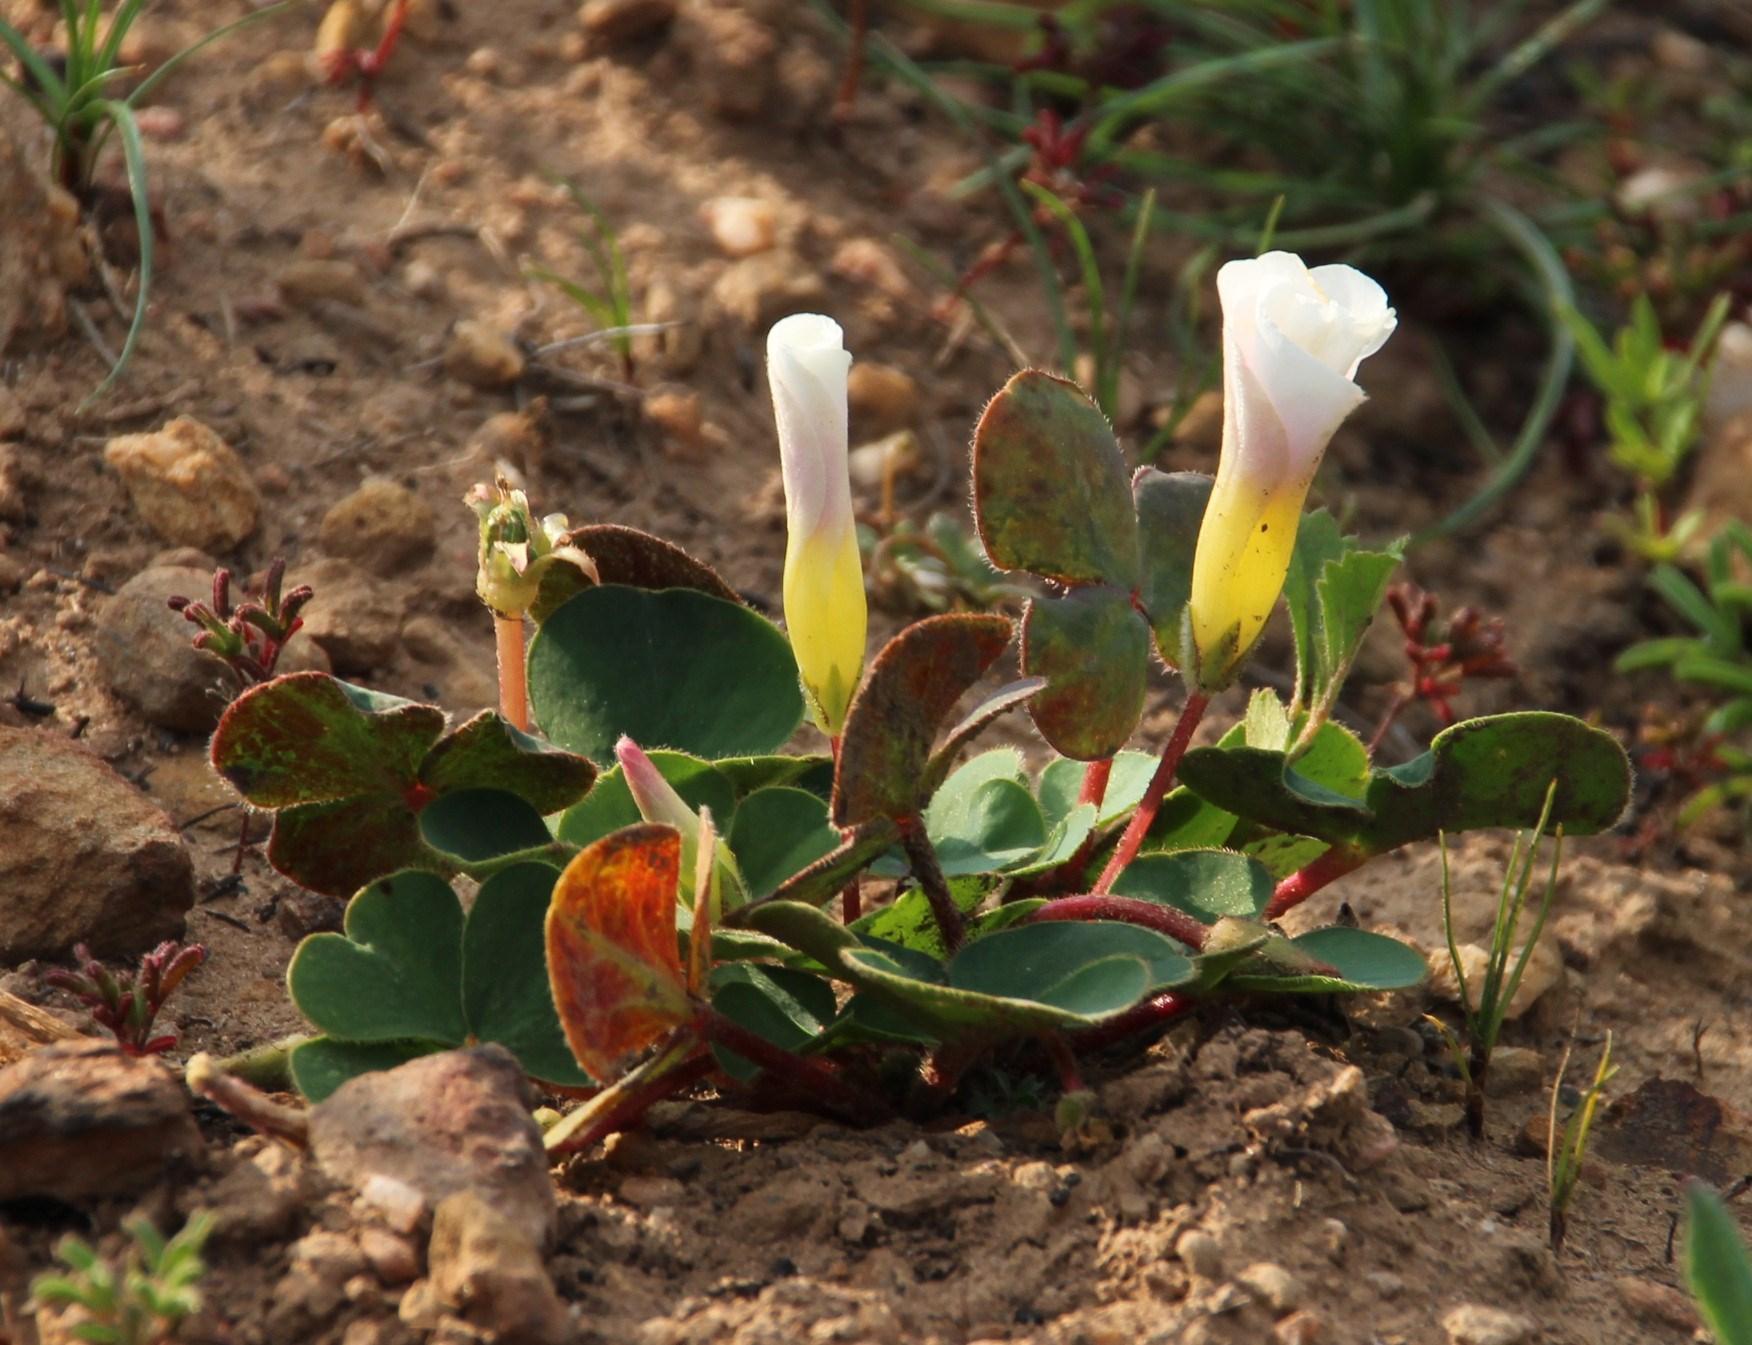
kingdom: Plantae
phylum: Tracheophyta
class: Magnoliopsida
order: Oxalidales
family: Oxalidaceae
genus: Oxalis
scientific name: Oxalis purpurea
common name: Purple woodsorrel
